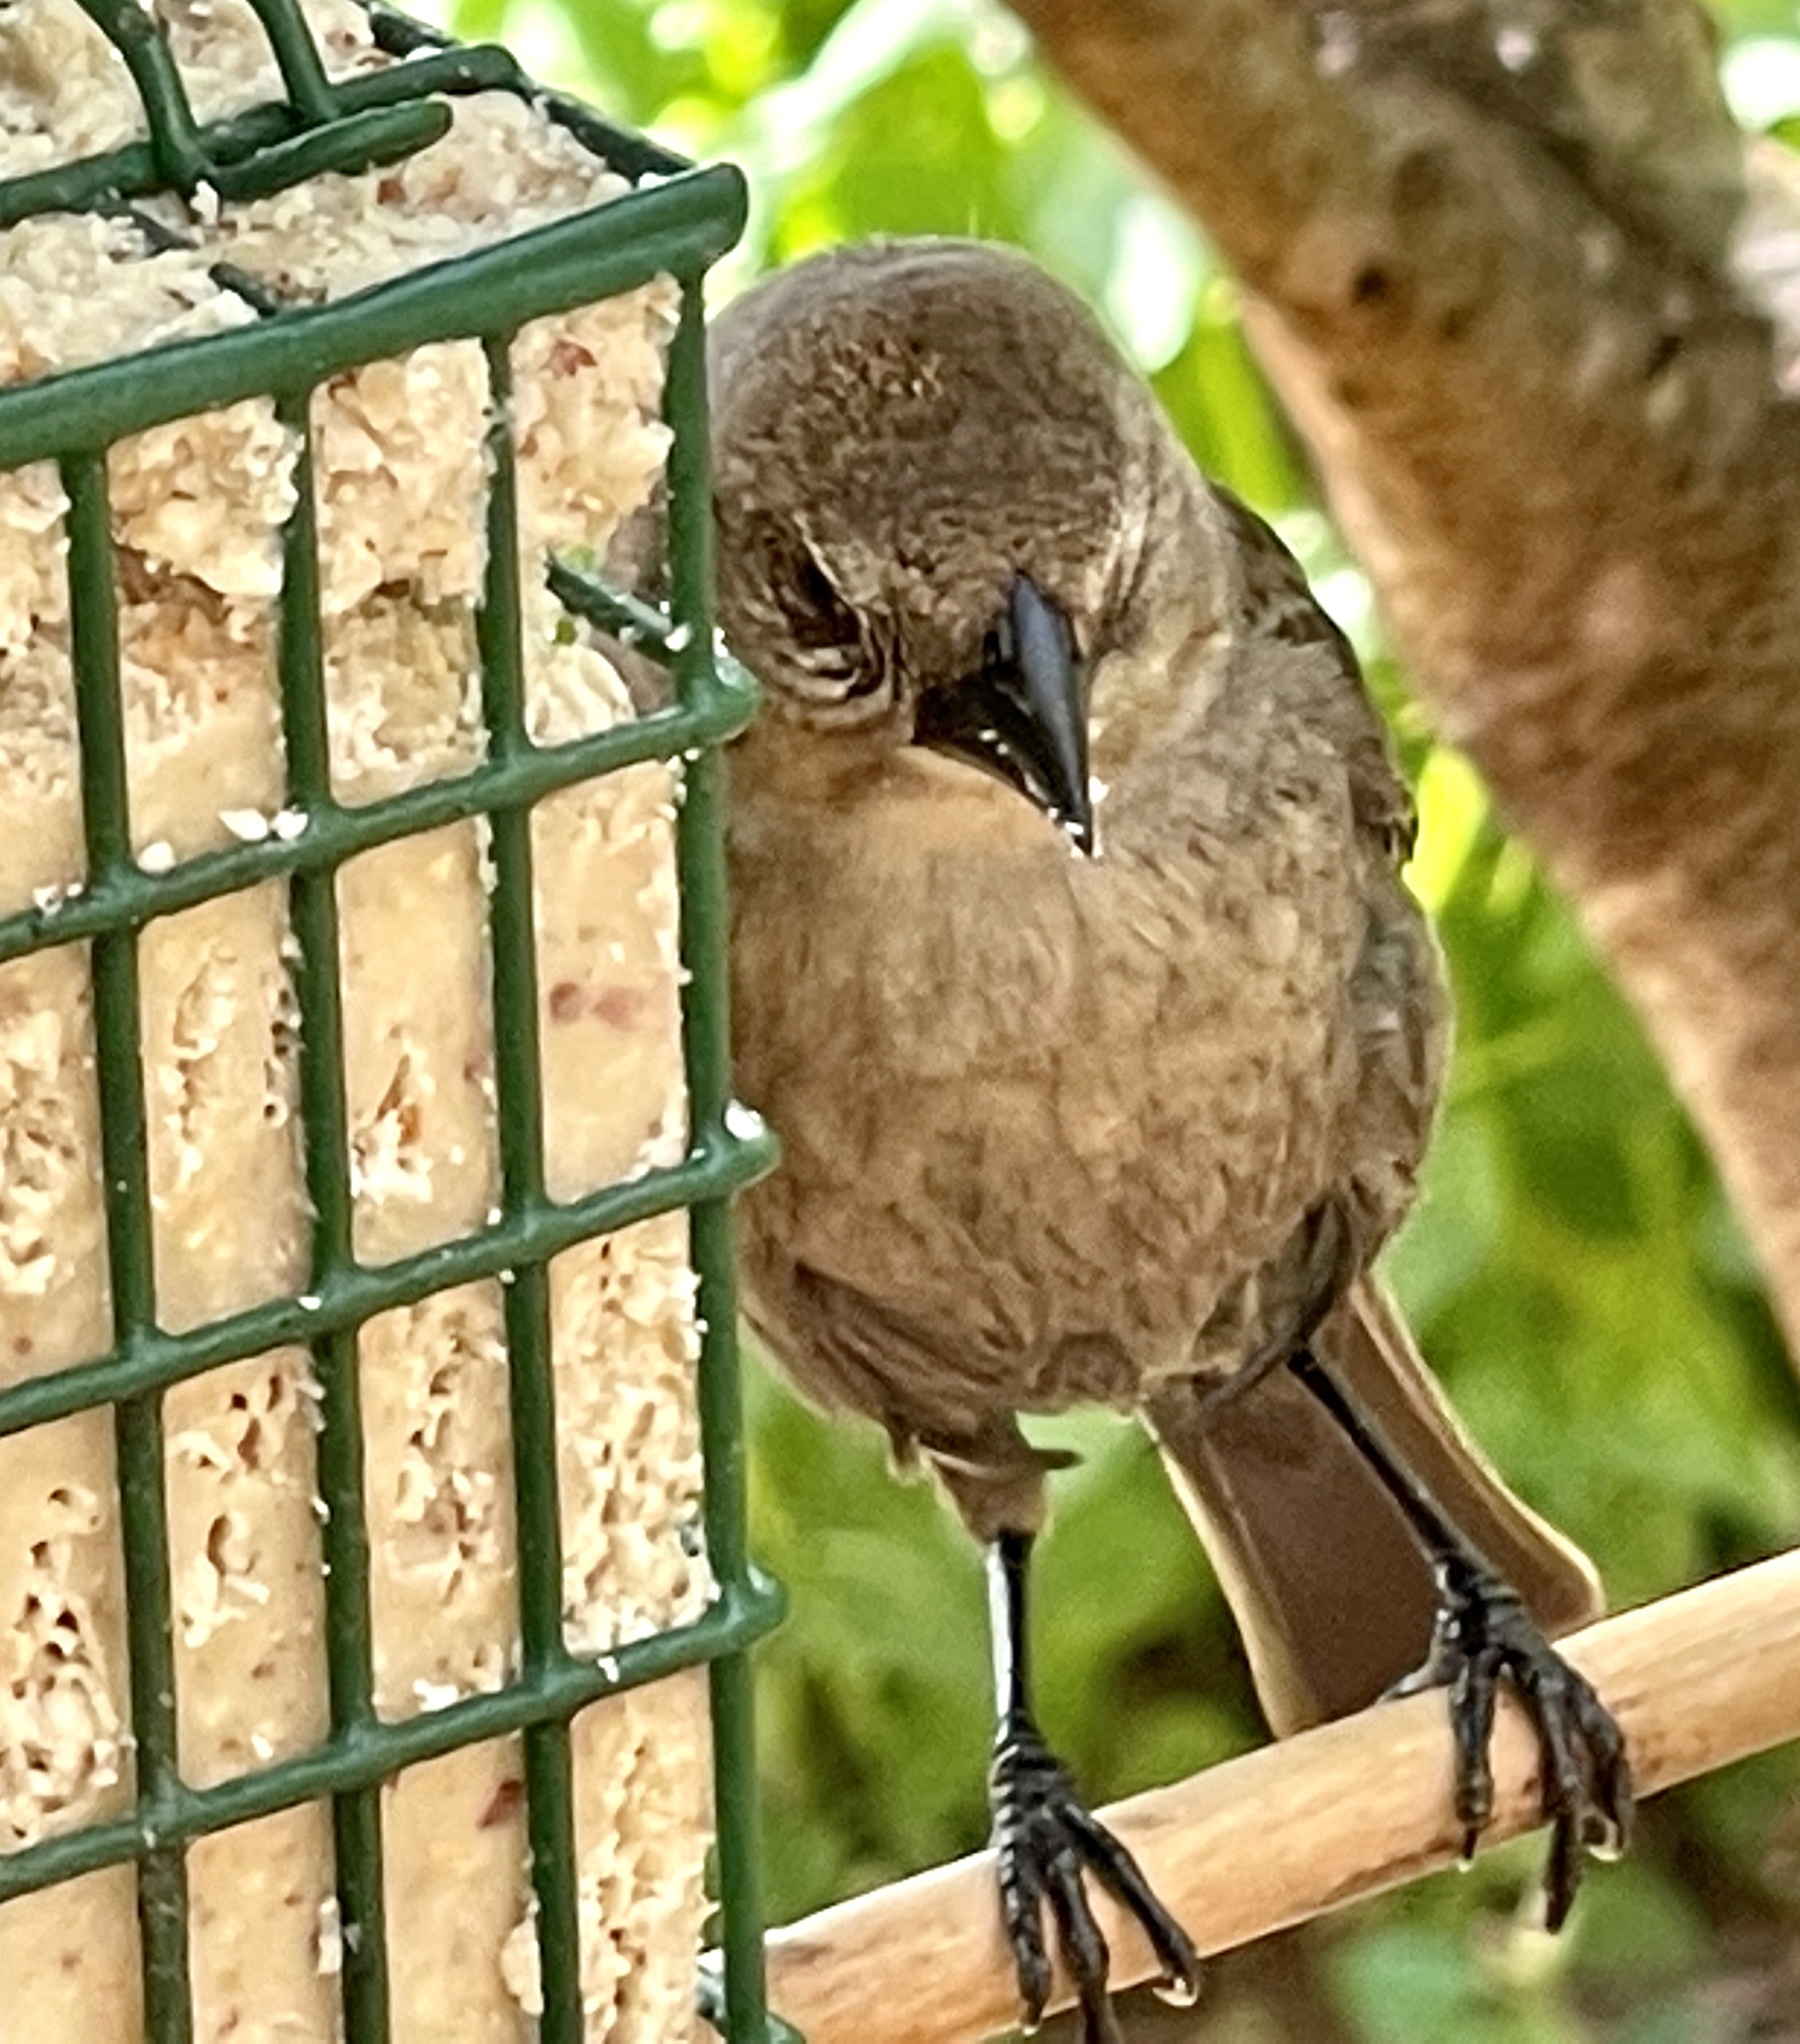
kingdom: Animalia
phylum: Chordata
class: Aves
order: Passeriformes
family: Icteridae
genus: Molothrus
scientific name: Molothrus ater
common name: Brown-headed cowbird
